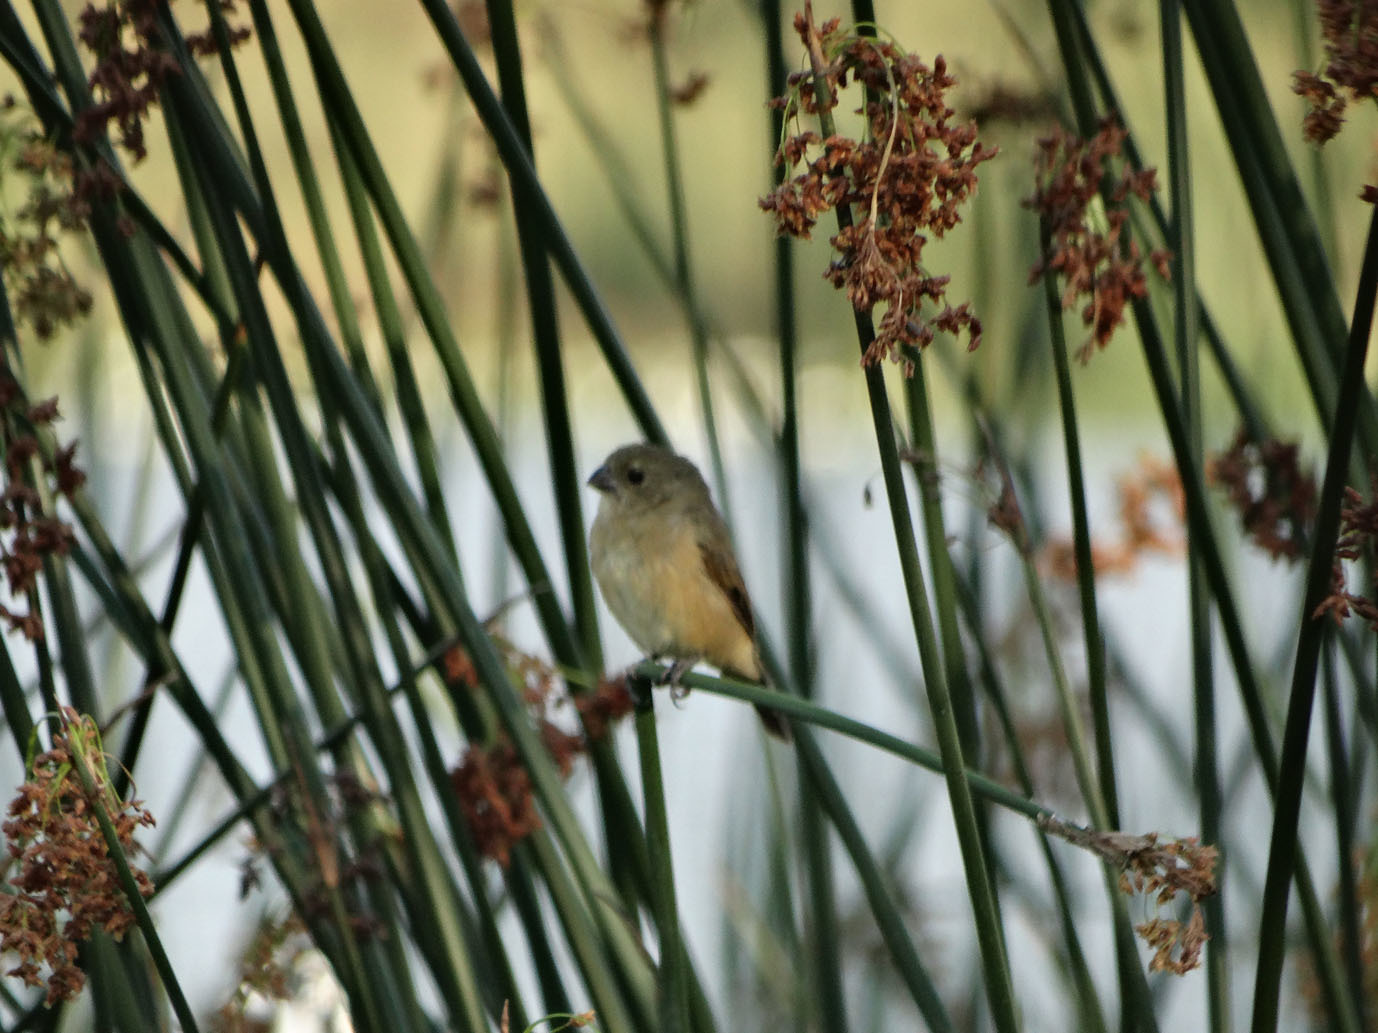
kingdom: Animalia
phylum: Chordata
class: Aves
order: Passeriformes
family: Thraupidae
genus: Sporophila
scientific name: Sporophila torqueola
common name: White-collared seedeater
